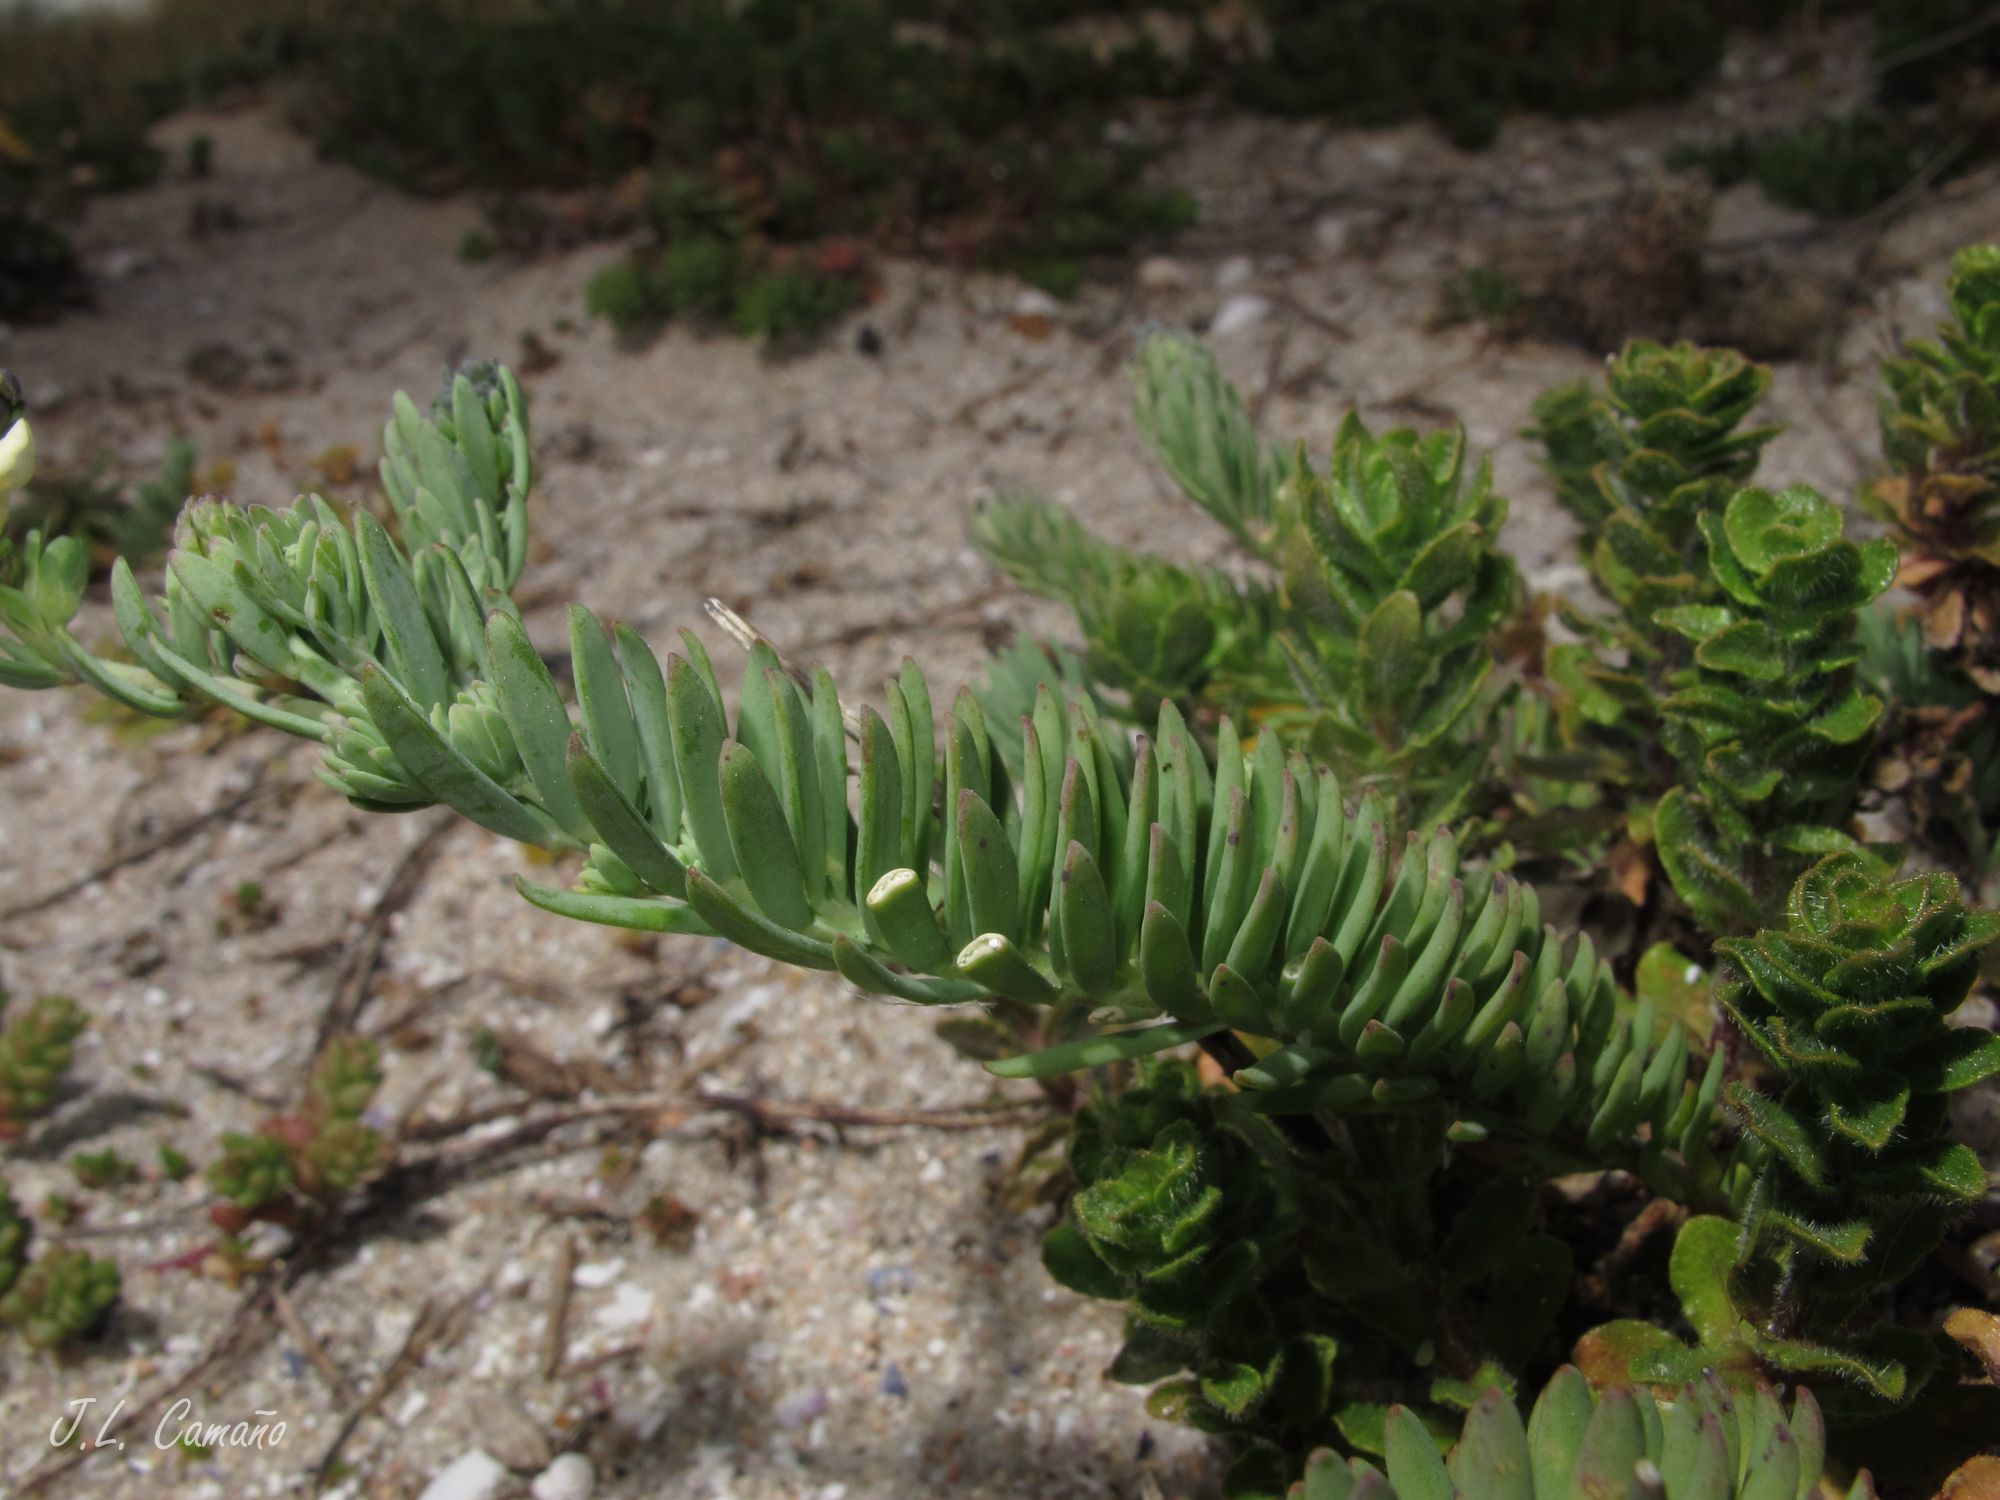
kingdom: Plantae
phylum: Tracheophyta
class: Magnoliopsida
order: Lamiales
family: Plantaginaceae
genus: Linaria
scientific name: Linaria polygalifolia
